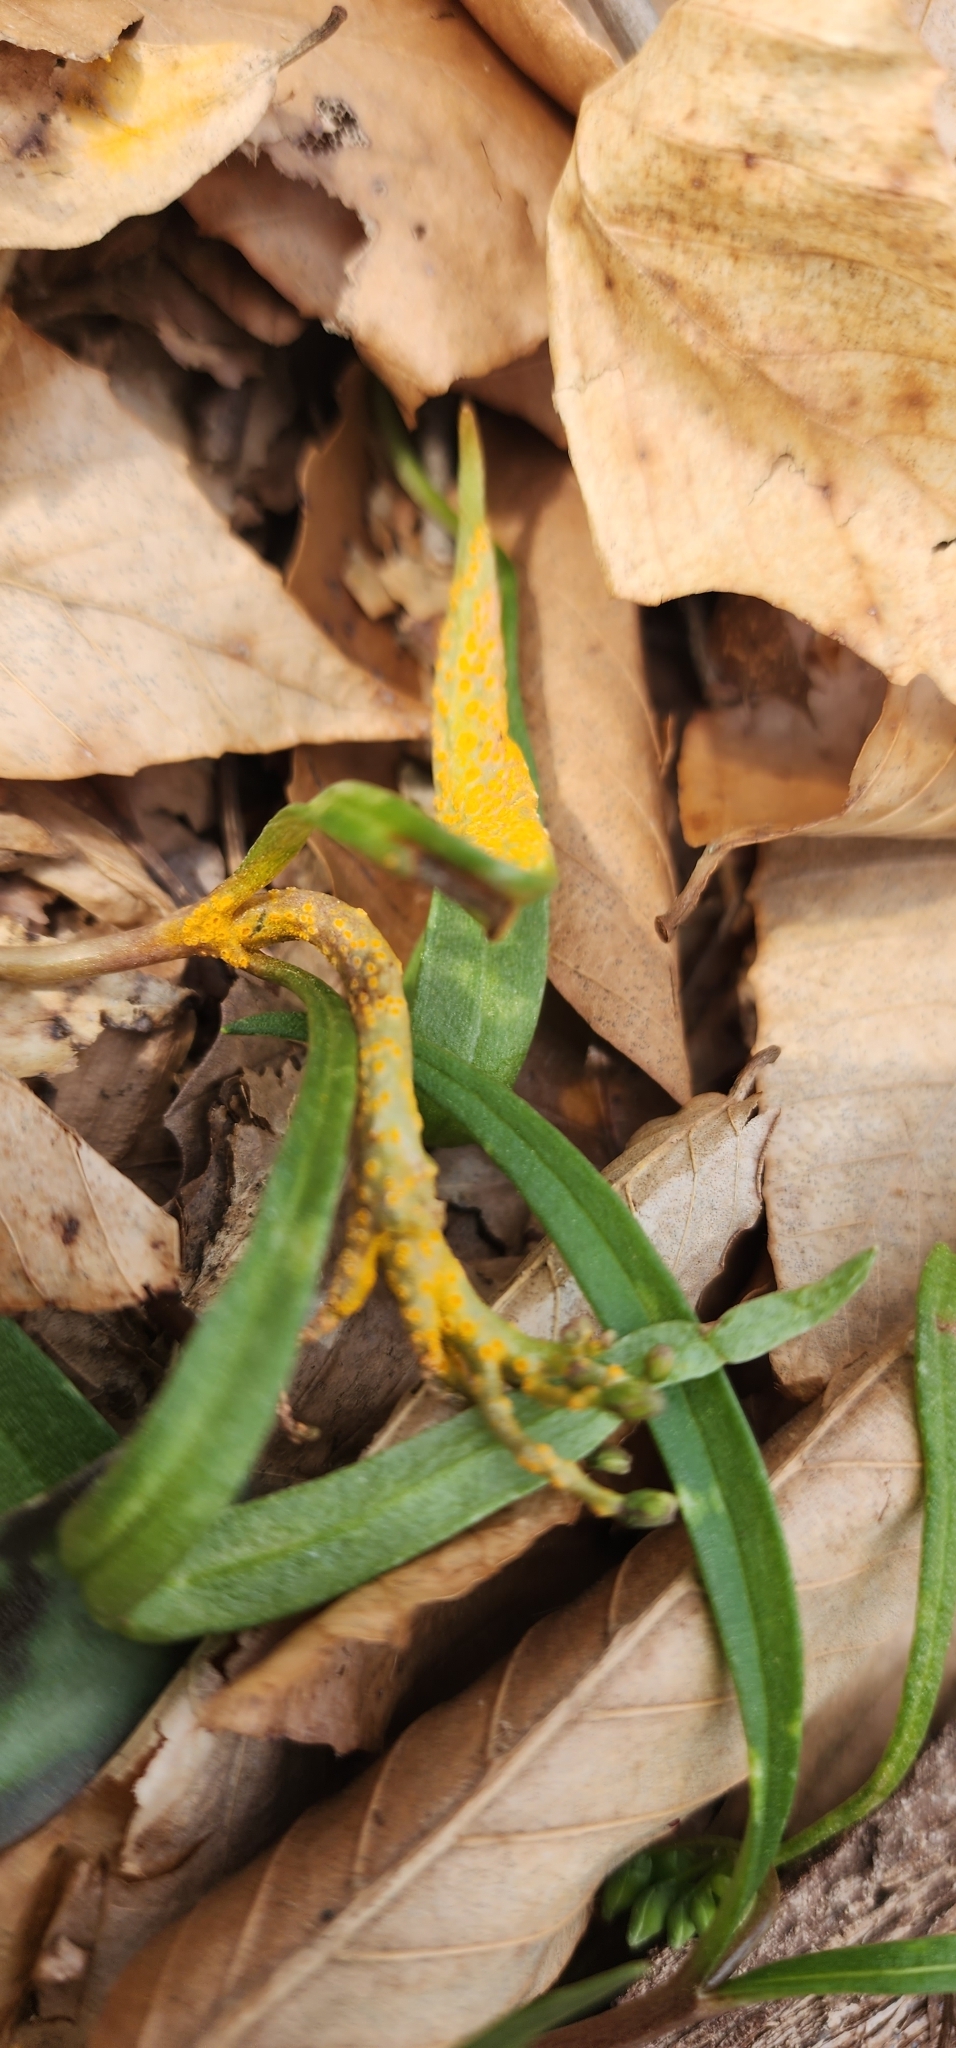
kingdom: Fungi
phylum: Basidiomycota
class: Pucciniomycetes
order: Pucciniales
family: Pucciniaceae
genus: Puccinia
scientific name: Puccinia mariae-wilsoniae
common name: Spring beauty rust
